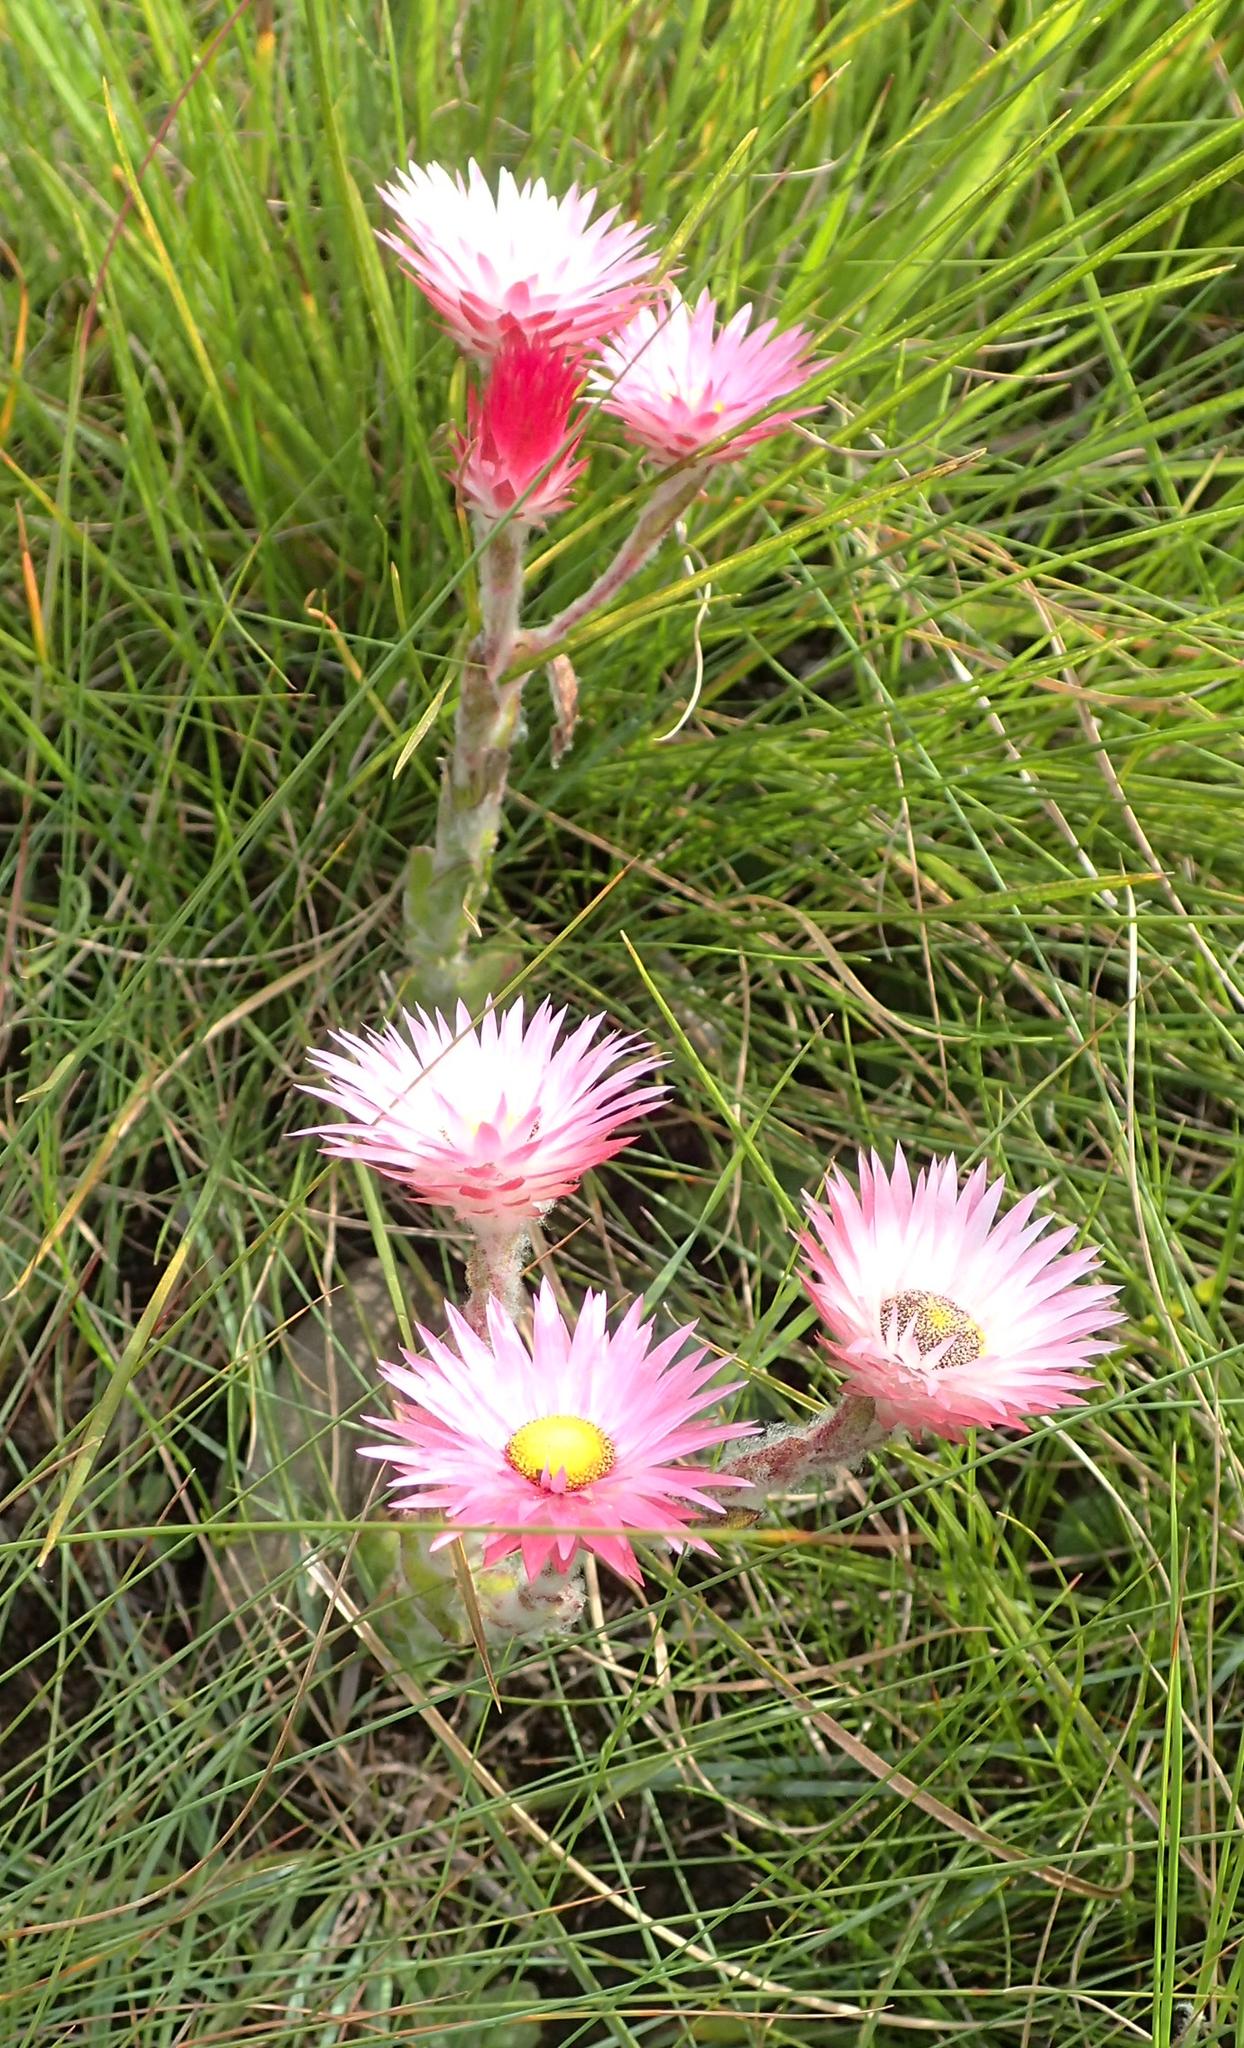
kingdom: Plantae
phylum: Tracheophyta
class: Magnoliopsida
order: Asterales
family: Asteraceae
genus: Helichrysum
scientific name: Helichrysum adenocarpum
